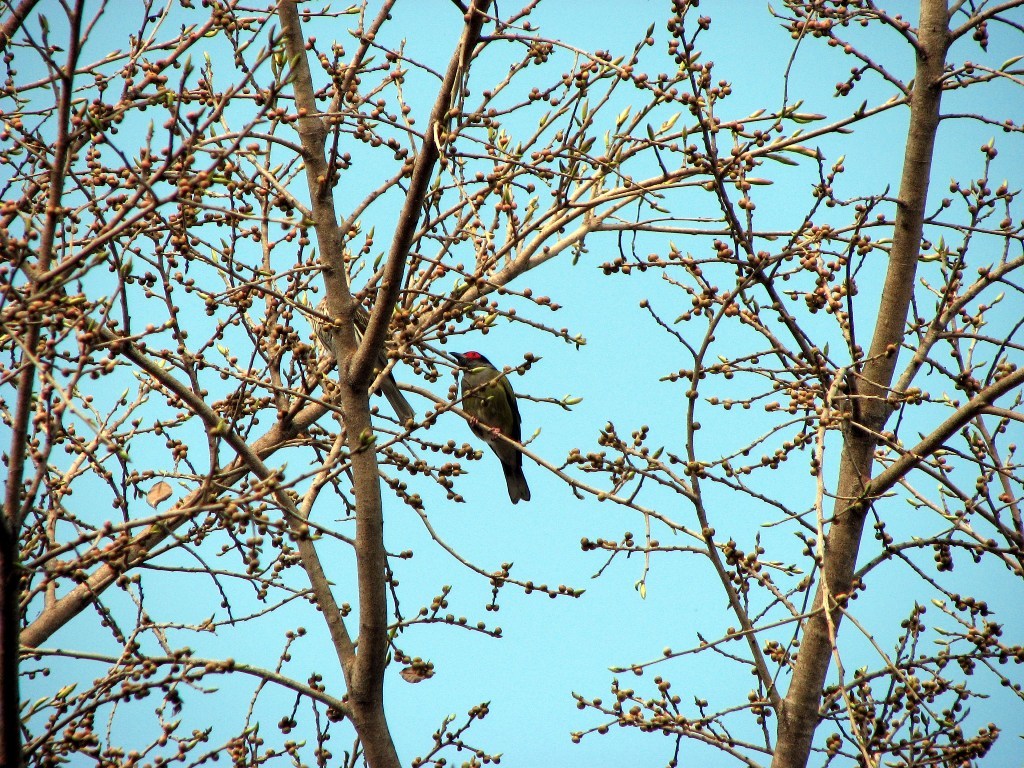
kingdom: Animalia
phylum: Chordata
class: Aves
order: Passeriformes
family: Oriolidae
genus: Sphecotheres
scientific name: Sphecotheres vieilloti
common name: Australasian figbird
